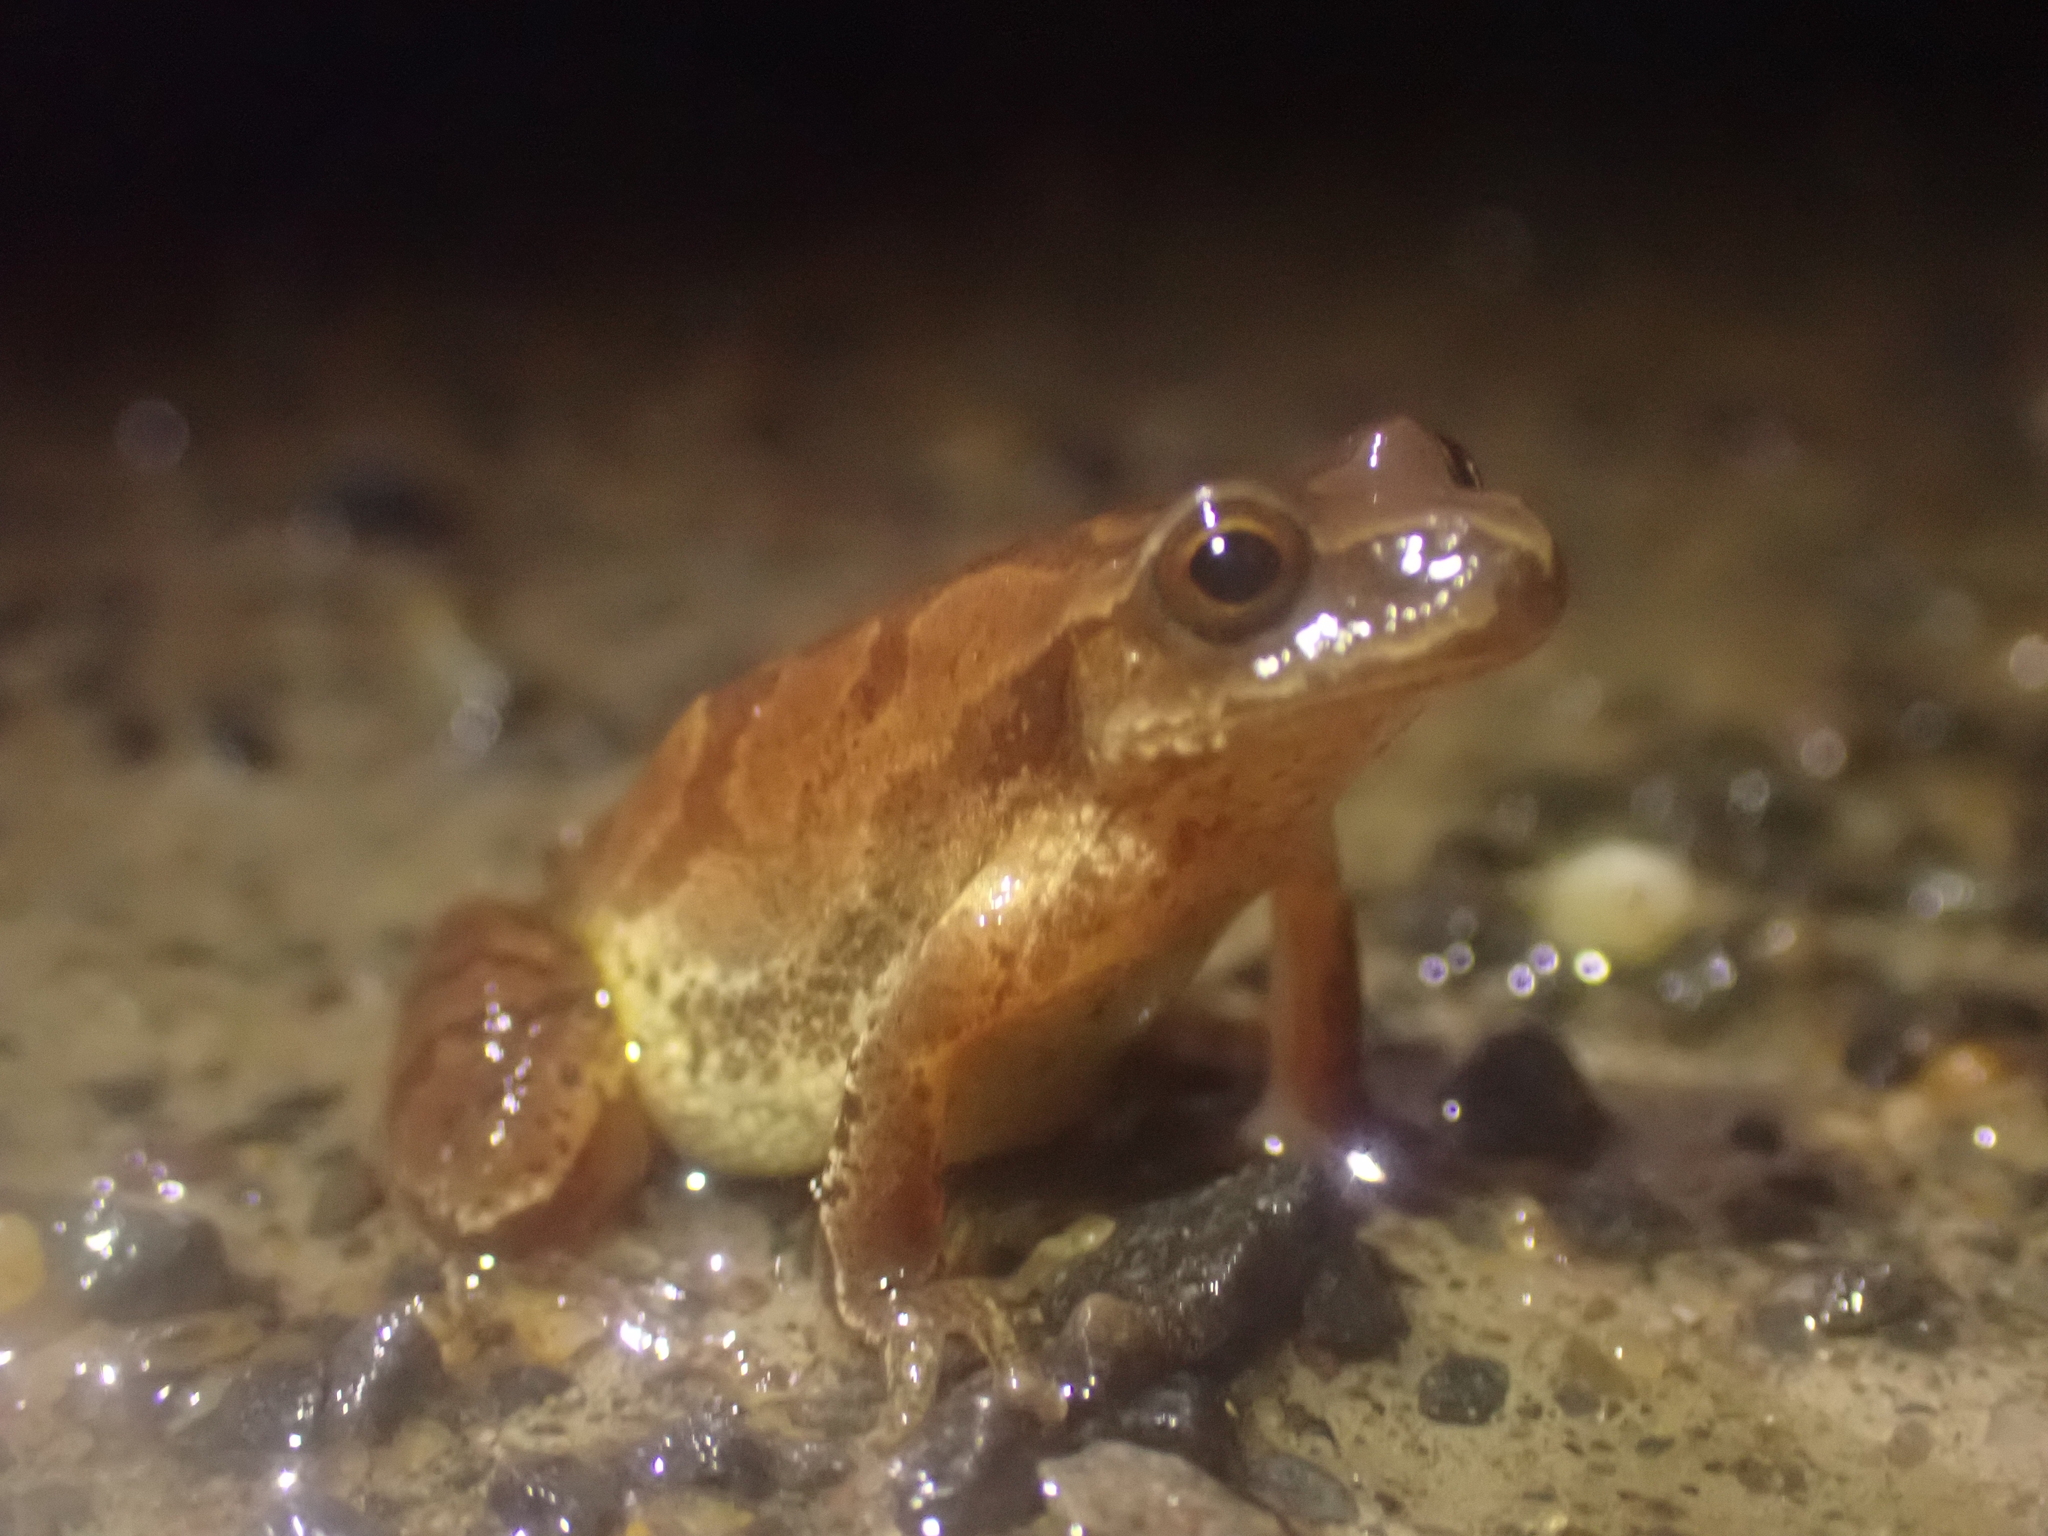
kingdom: Animalia
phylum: Chordata
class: Amphibia
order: Anura
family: Hylidae
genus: Pseudacris
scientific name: Pseudacris crucifer
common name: Spring peeper
